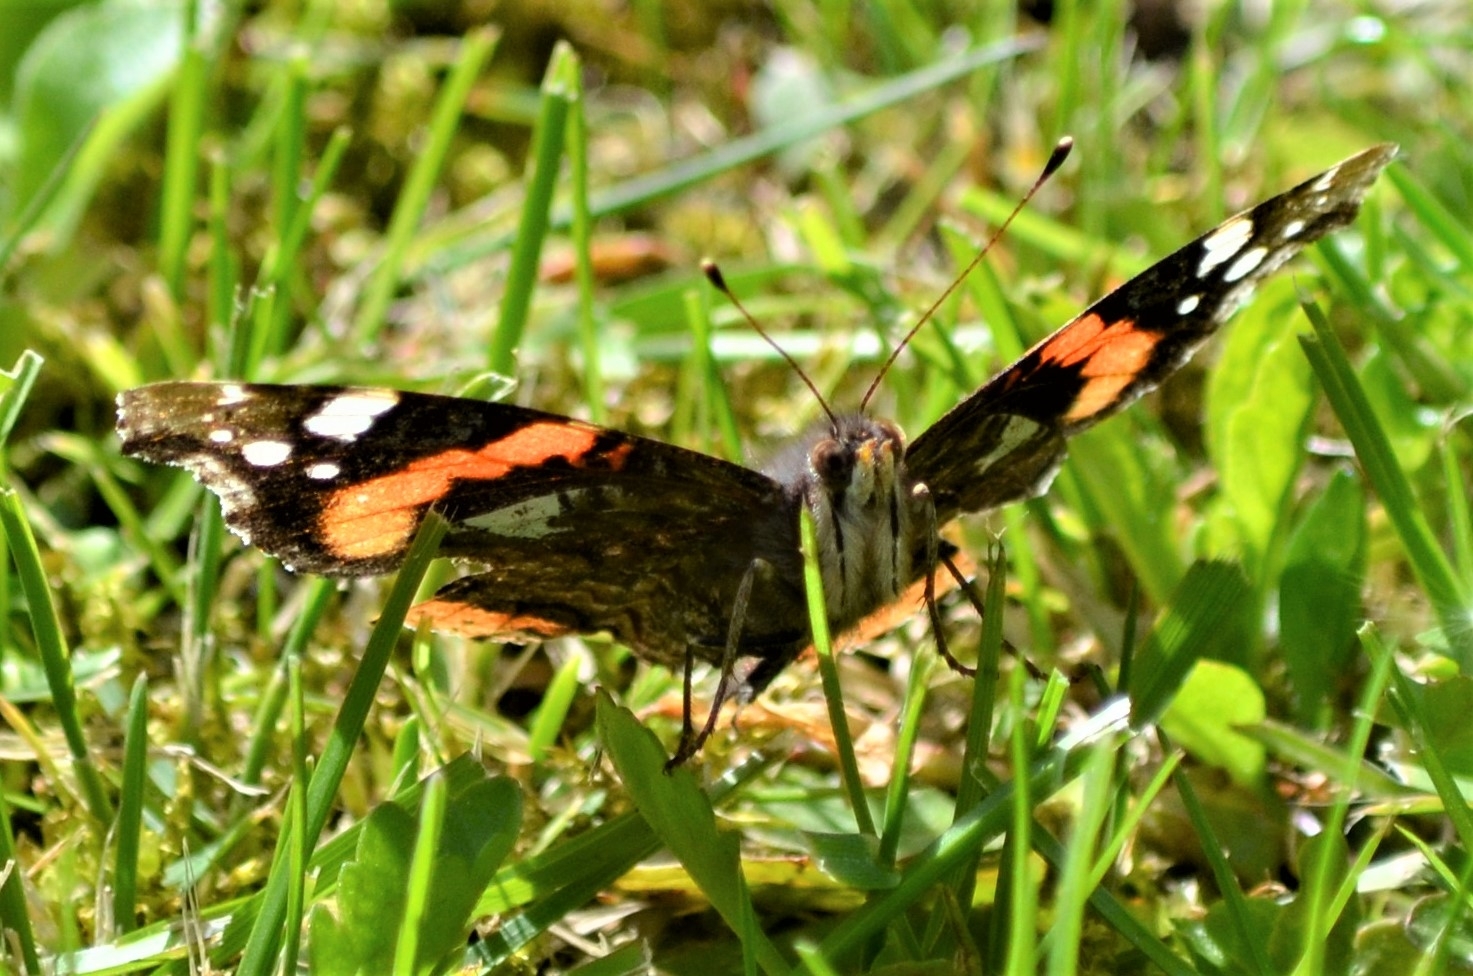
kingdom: Animalia
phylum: Arthropoda
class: Insecta
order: Lepidoptera
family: Nymphalidae
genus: Vanessa
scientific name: Vanessa atalanta
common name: Red admiral
